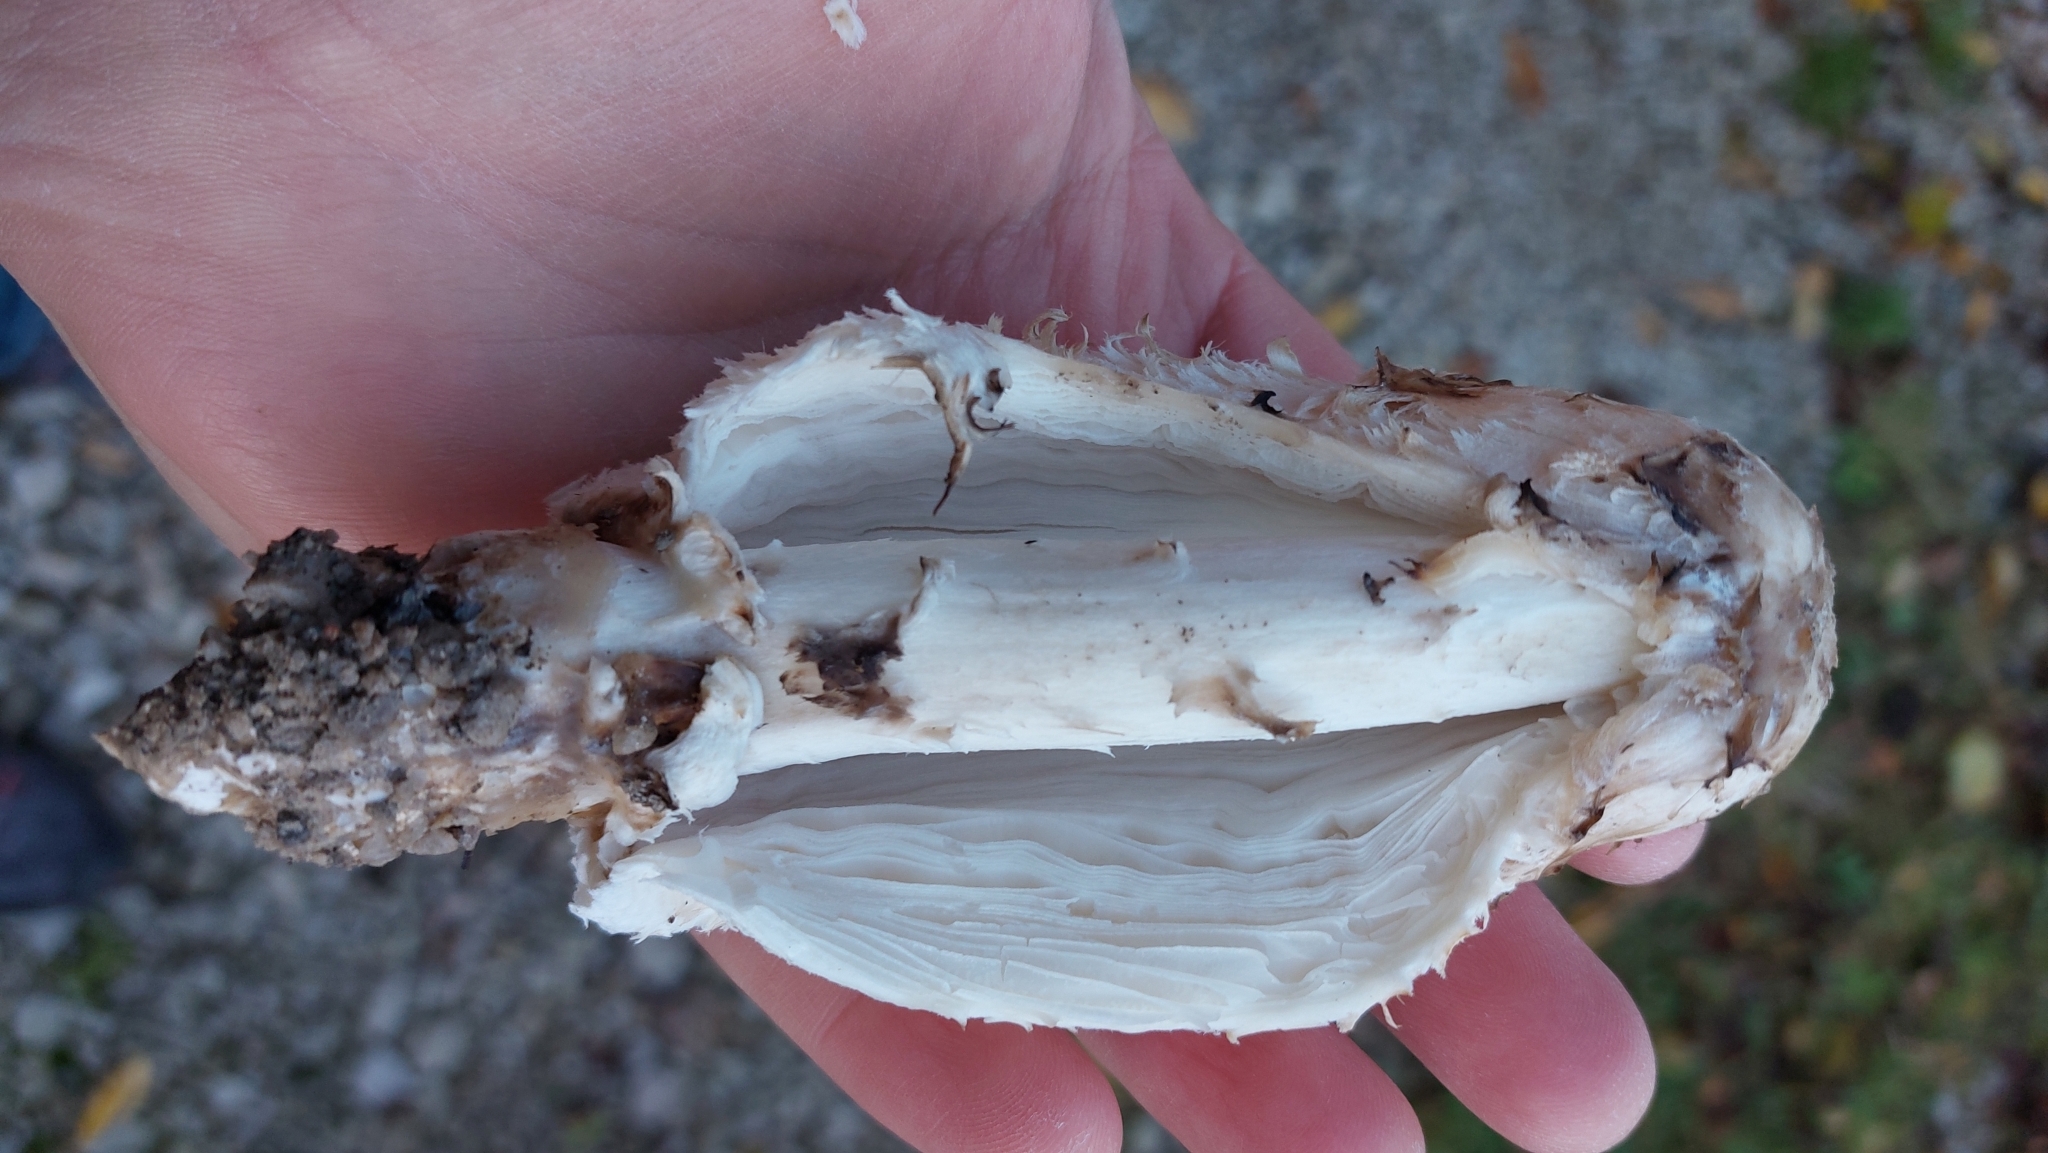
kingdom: Fungi
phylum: Basidiomycota
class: Agaricomycetes
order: Agaricales
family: Agaricaceae
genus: Coprinus
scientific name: Coprinus comatus
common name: Lawyer's wig
